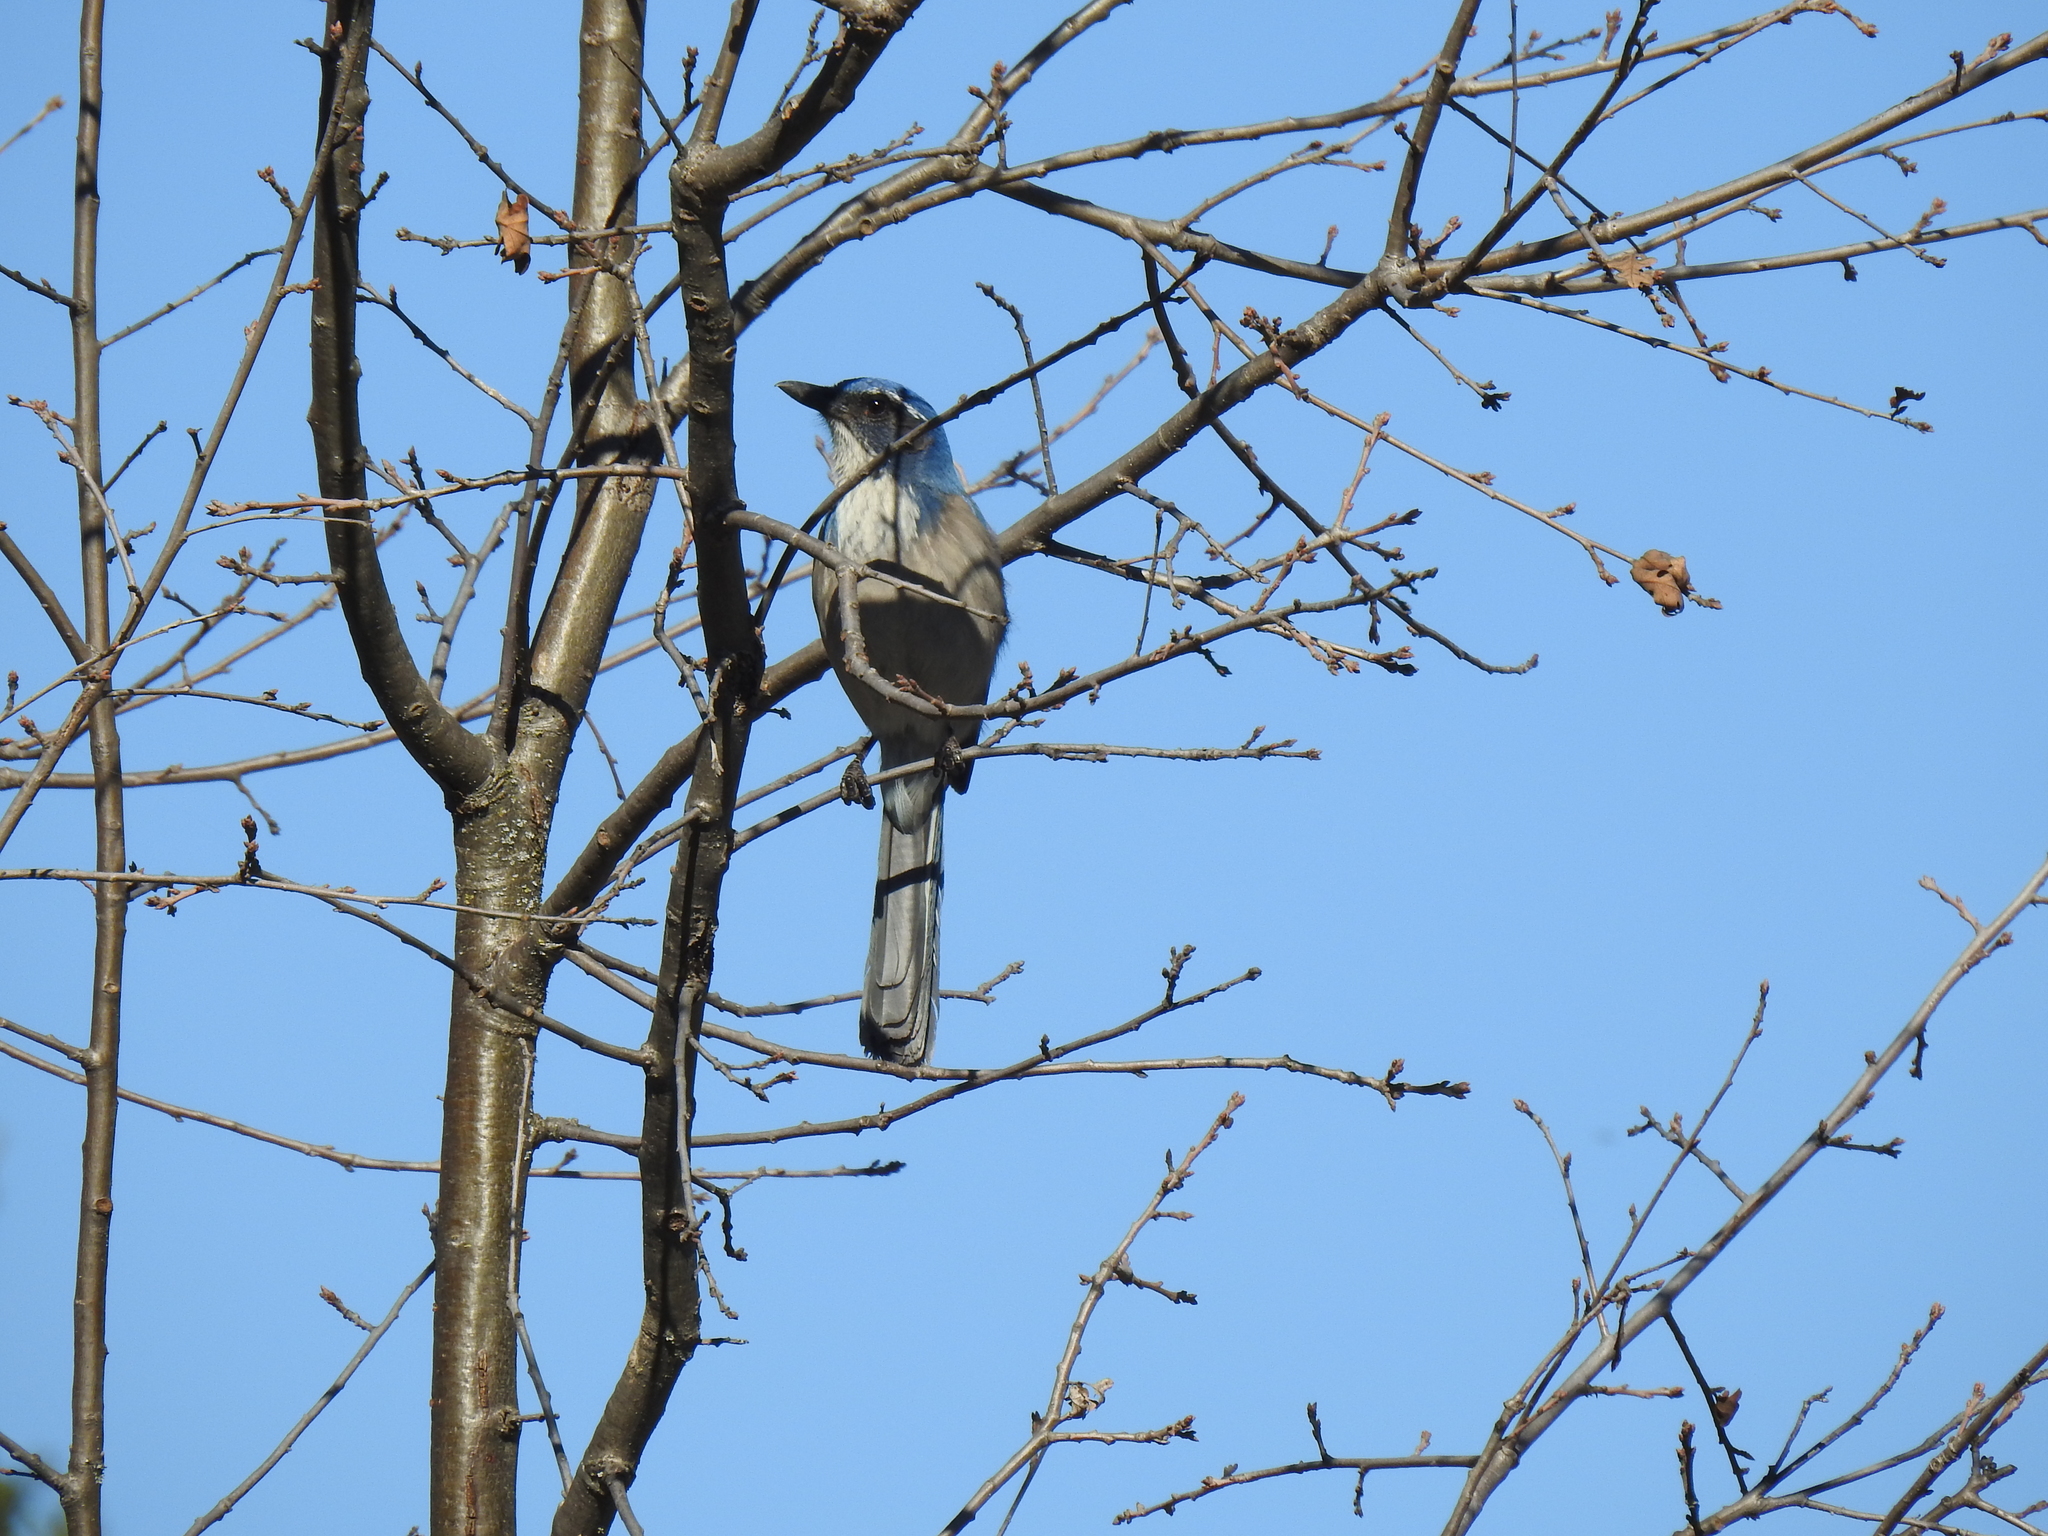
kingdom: Animalia
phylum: Chordata
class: Aves
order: Passeriformes
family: Corvidae
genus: Aphelocoma
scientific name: Aphelocoma californica
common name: California scrub-jay
